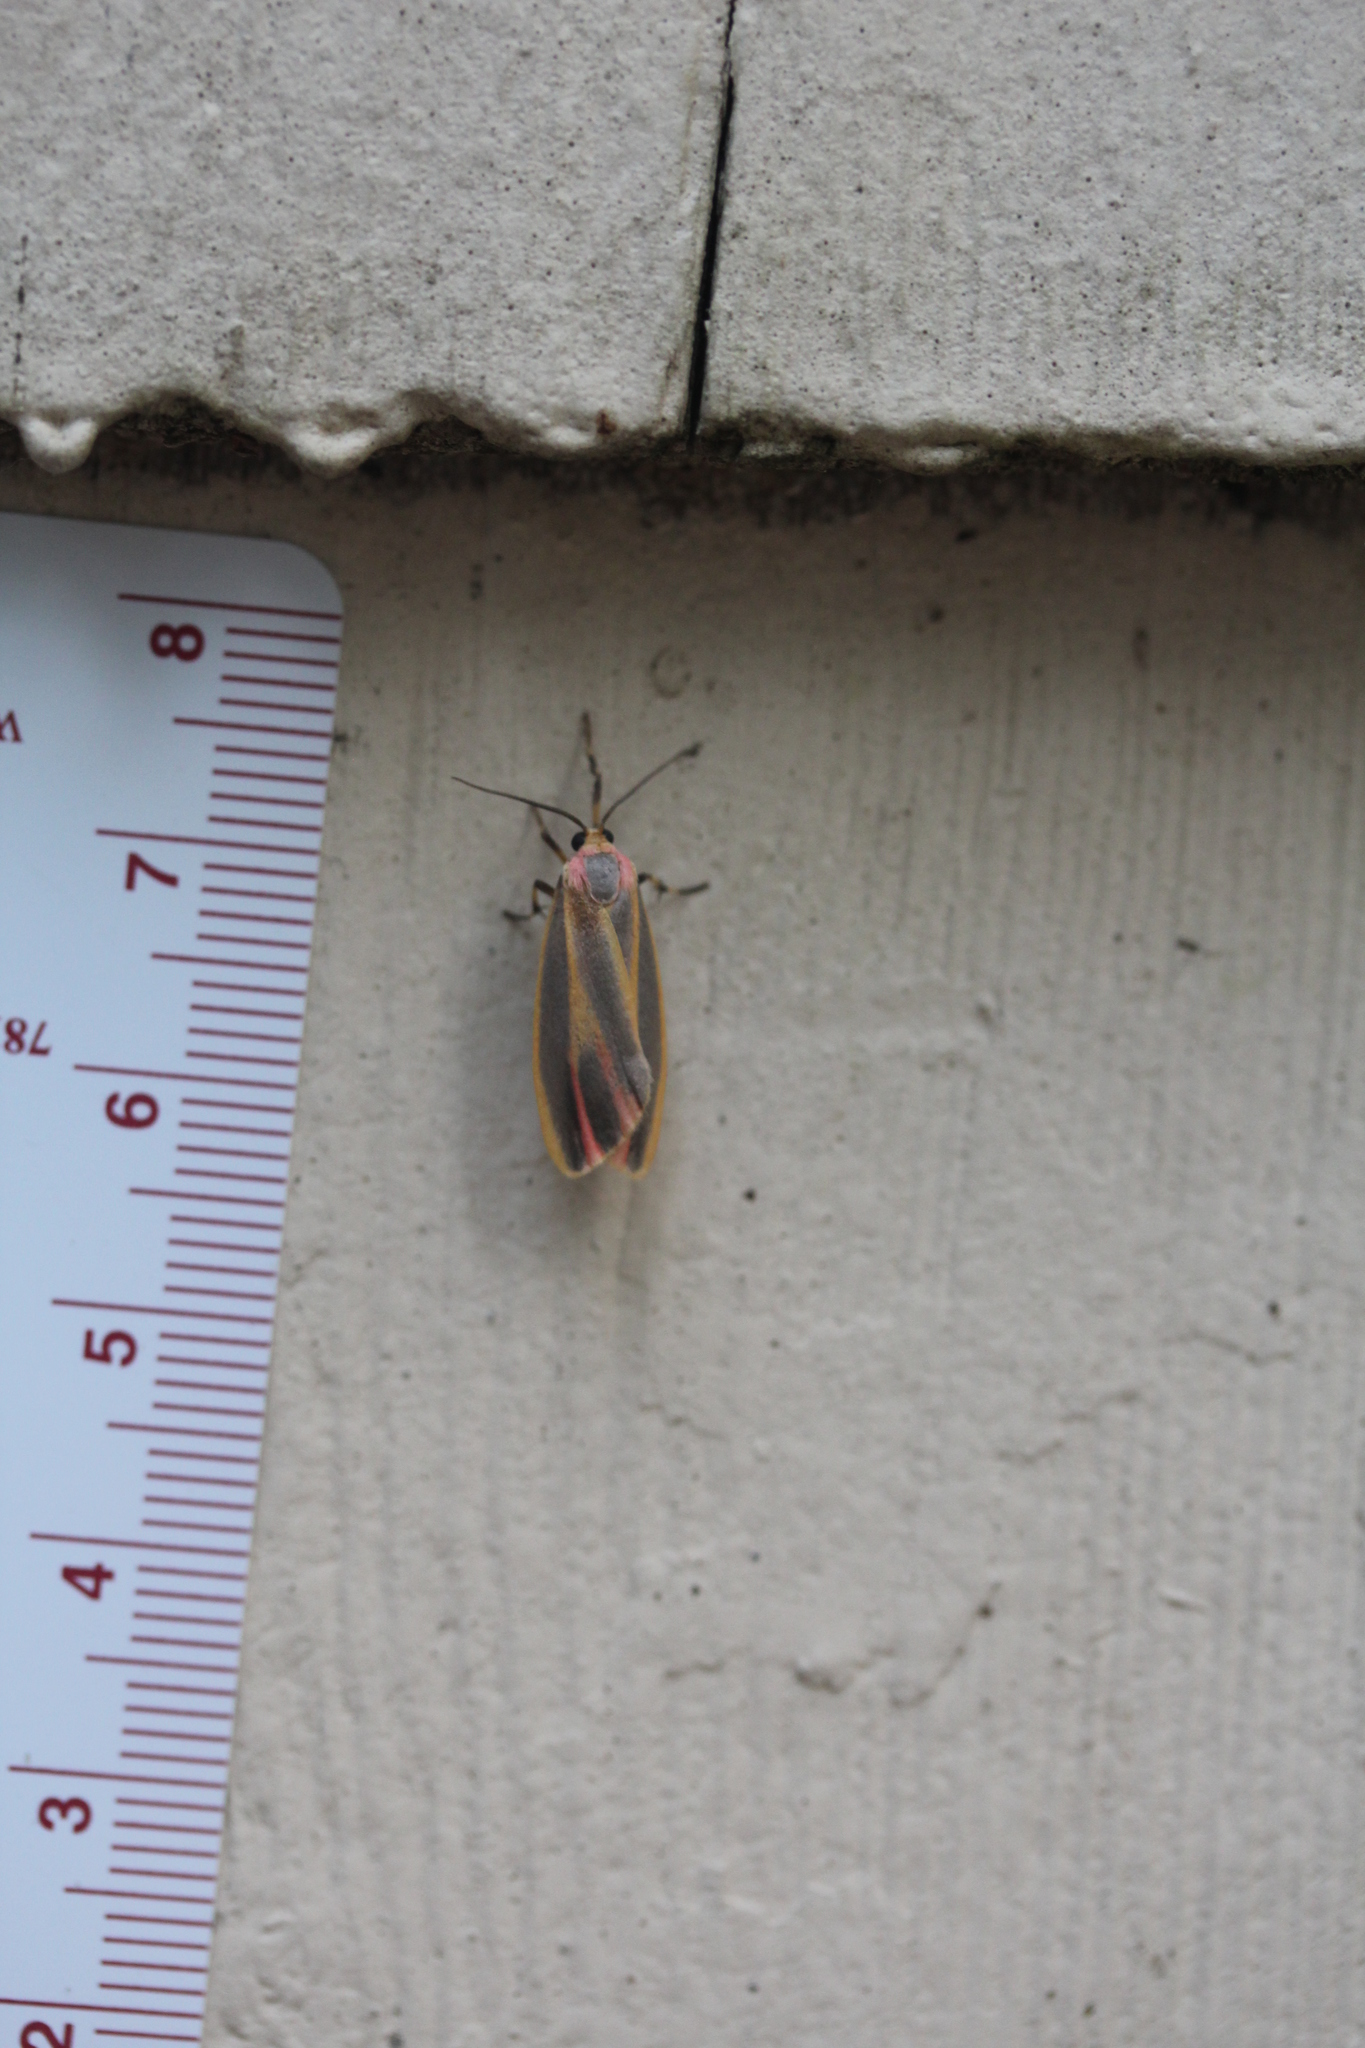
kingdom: Animalia
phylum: Arthropoda
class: Insecta
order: Lepidoptera
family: Erebidae
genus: Hypoprepia
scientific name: Hypoprepia fucosa
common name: Painted lichen moth
